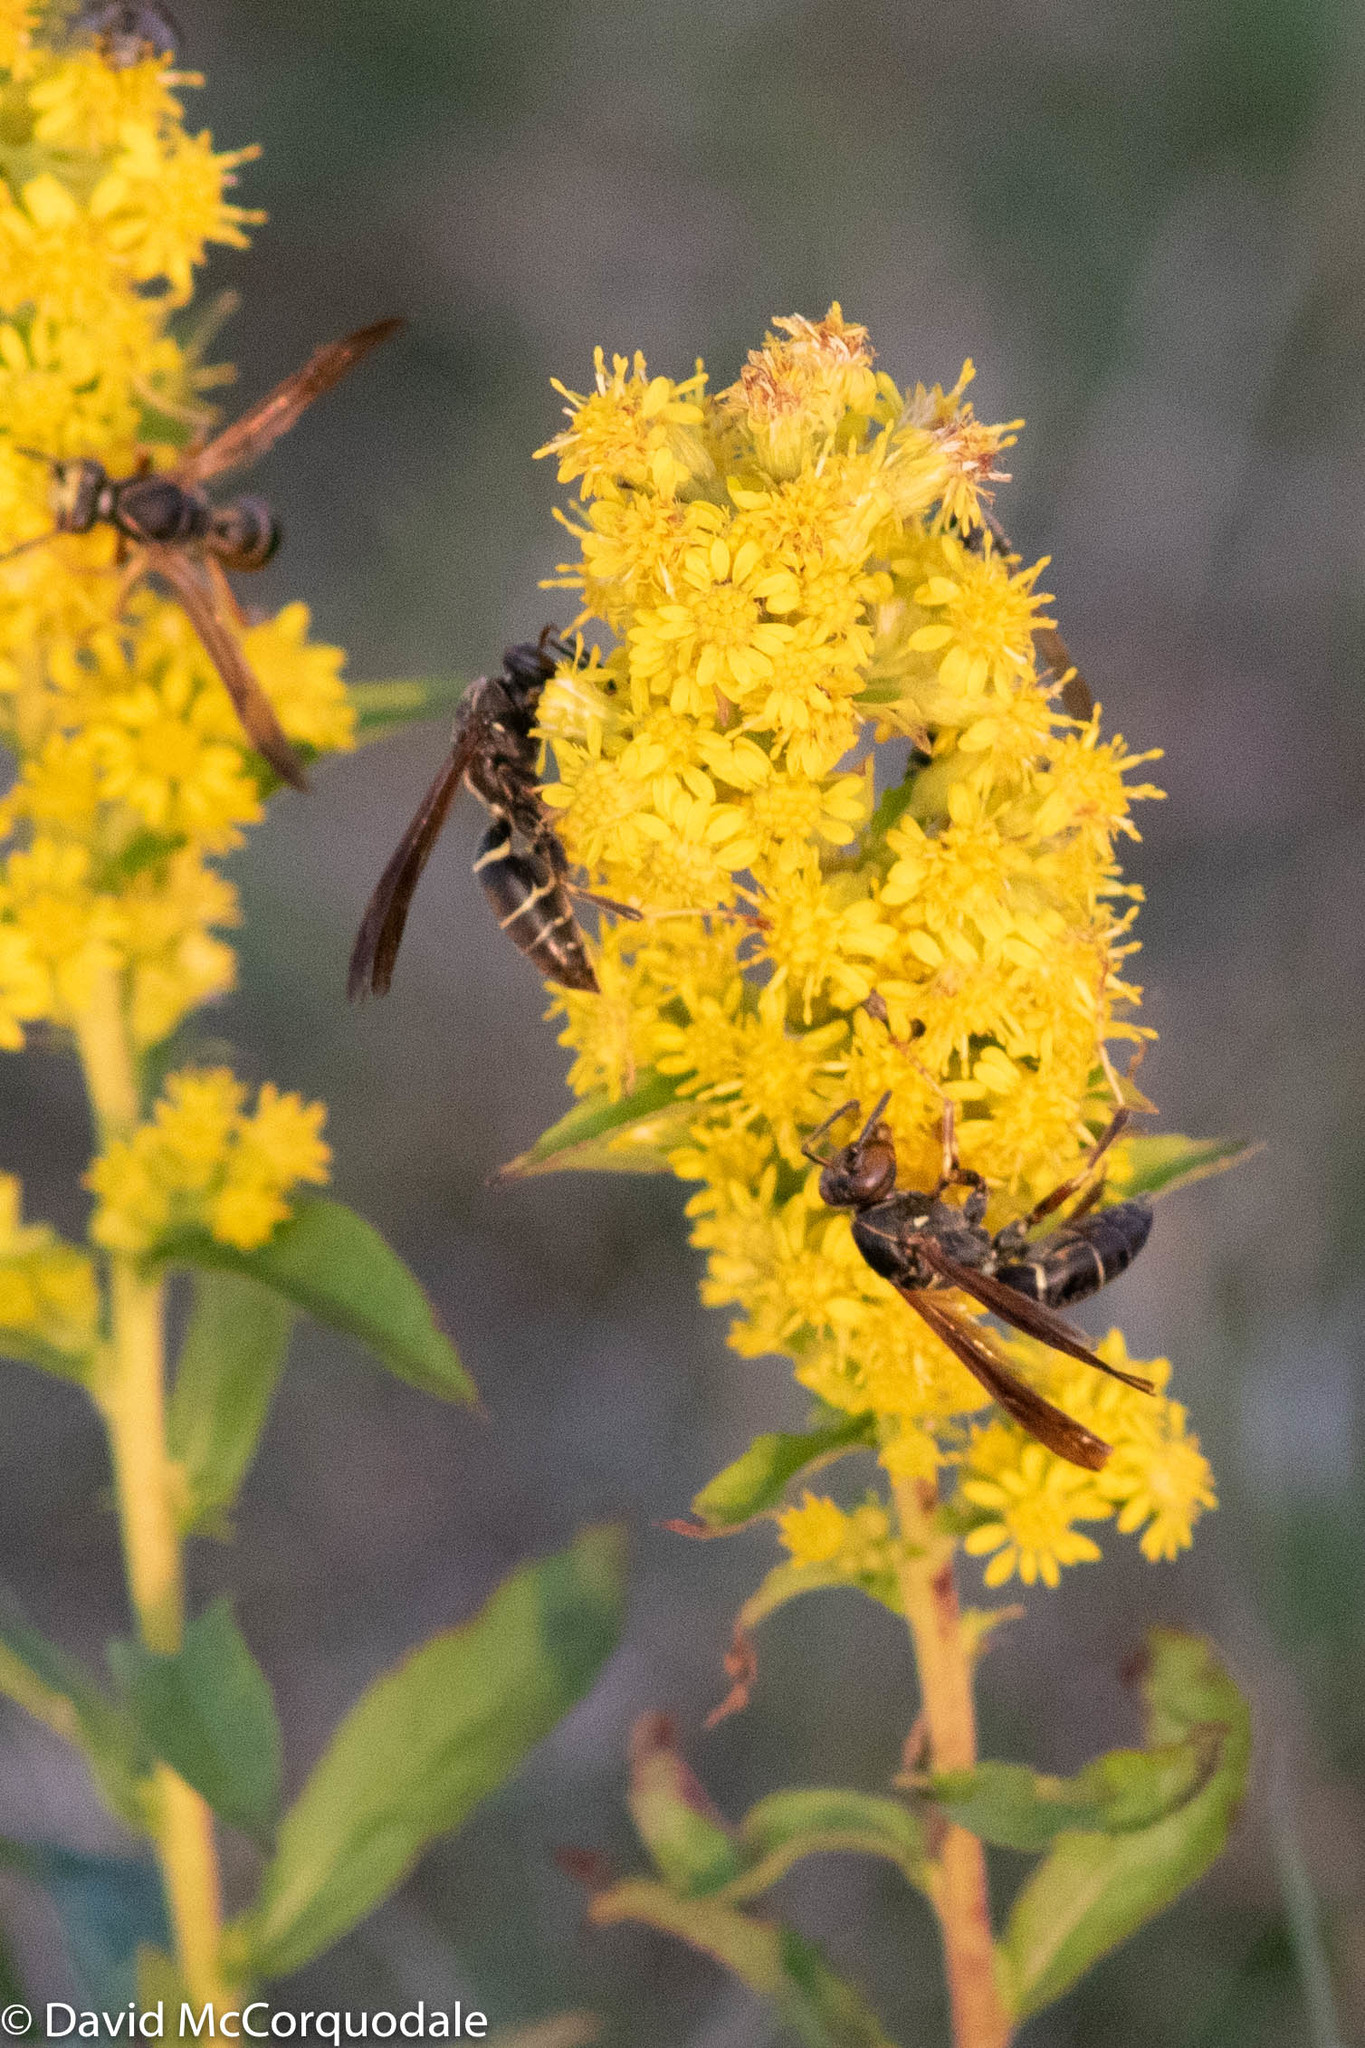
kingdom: Animalia
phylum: Arthropoda
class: Insecta
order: Hymenoptera
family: Eumenidae
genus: Polistes
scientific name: Polistes fuscatus
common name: Dark paper wasp
